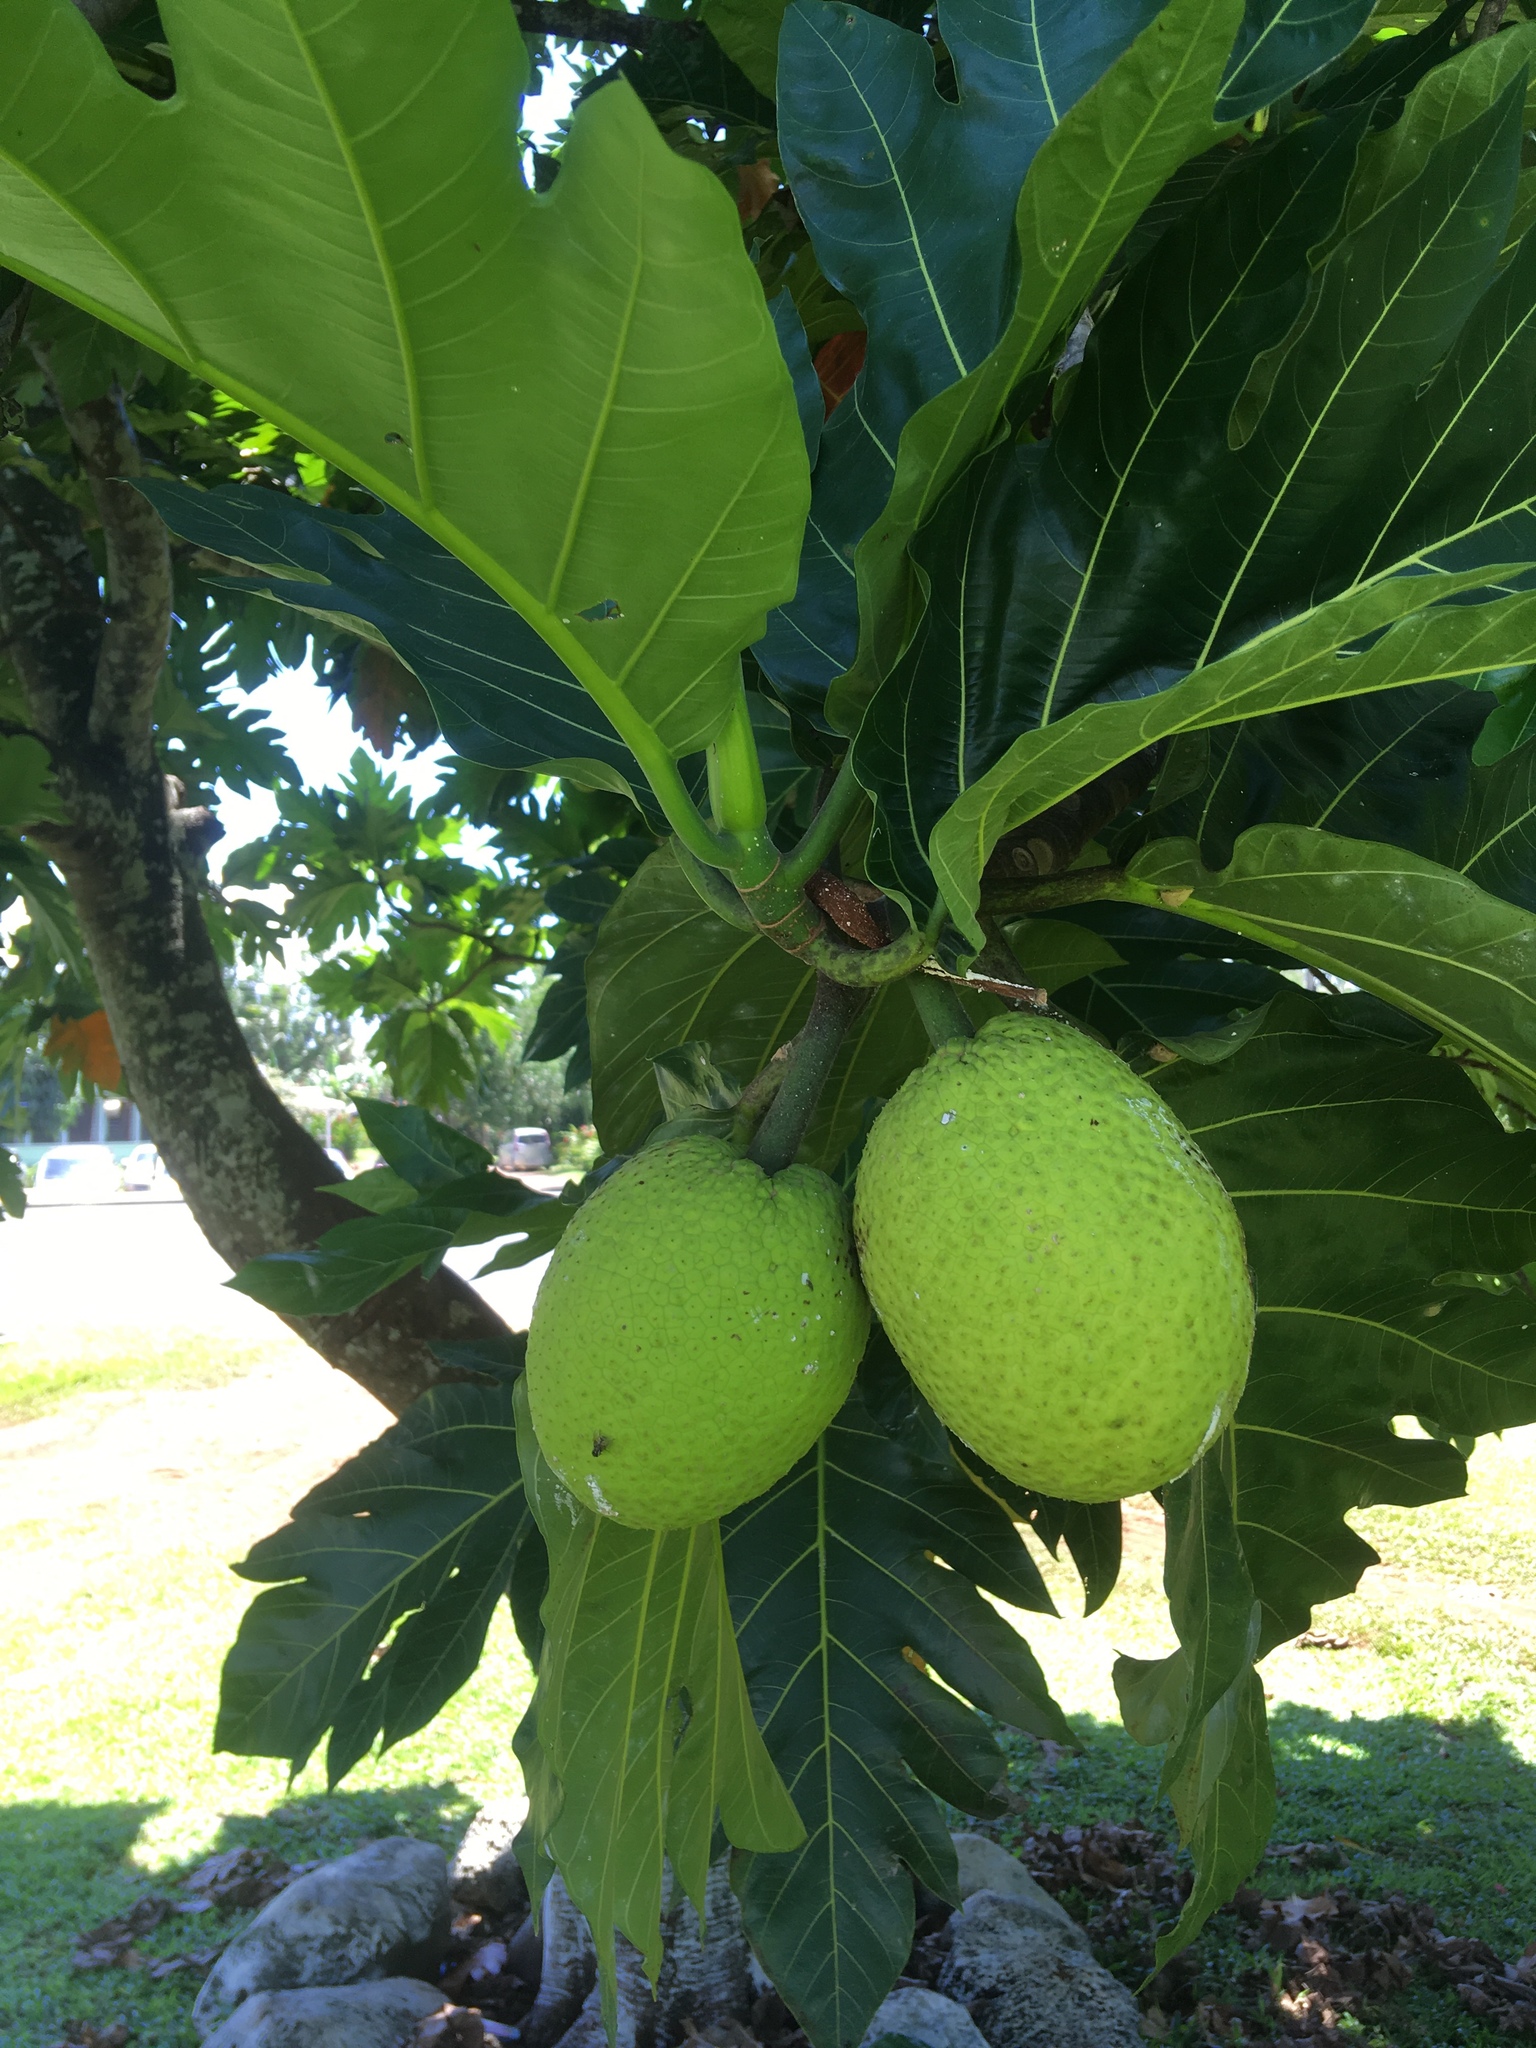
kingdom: Plantae
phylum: Tracheophyta
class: Magnoliopsida
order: Rosales
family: Moraceae
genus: Artocarpus
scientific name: Artocarpus altilis
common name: Breadfruit
